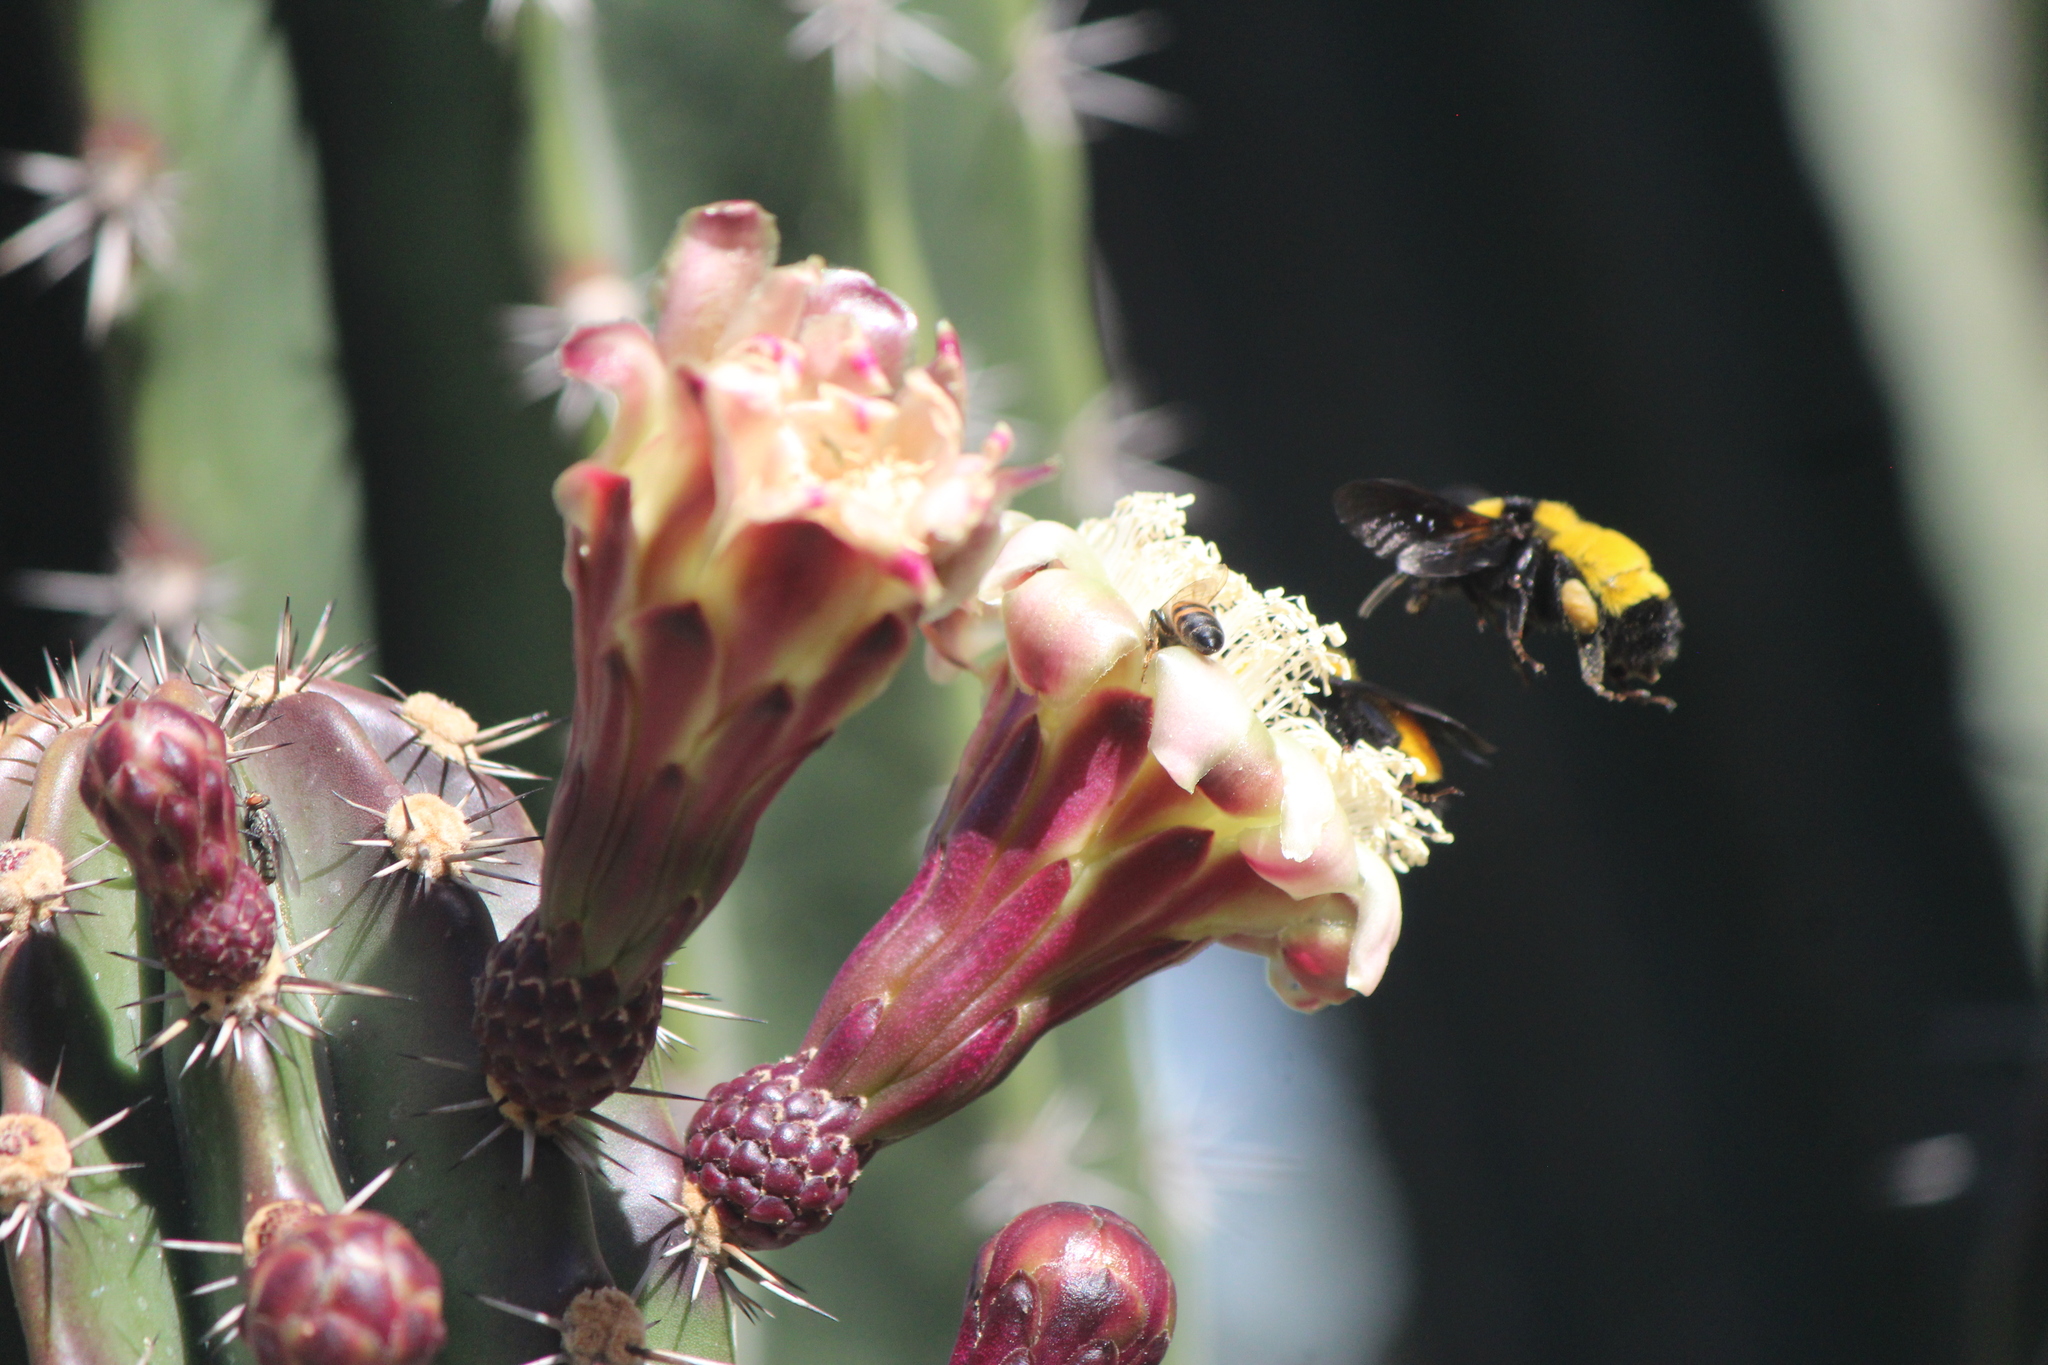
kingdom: Animalia
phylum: Arthropoda
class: Insecta
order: Hymenoptera
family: Apidae
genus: Bombus
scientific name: Bombus sonorus
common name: Sonoran bumble bee
